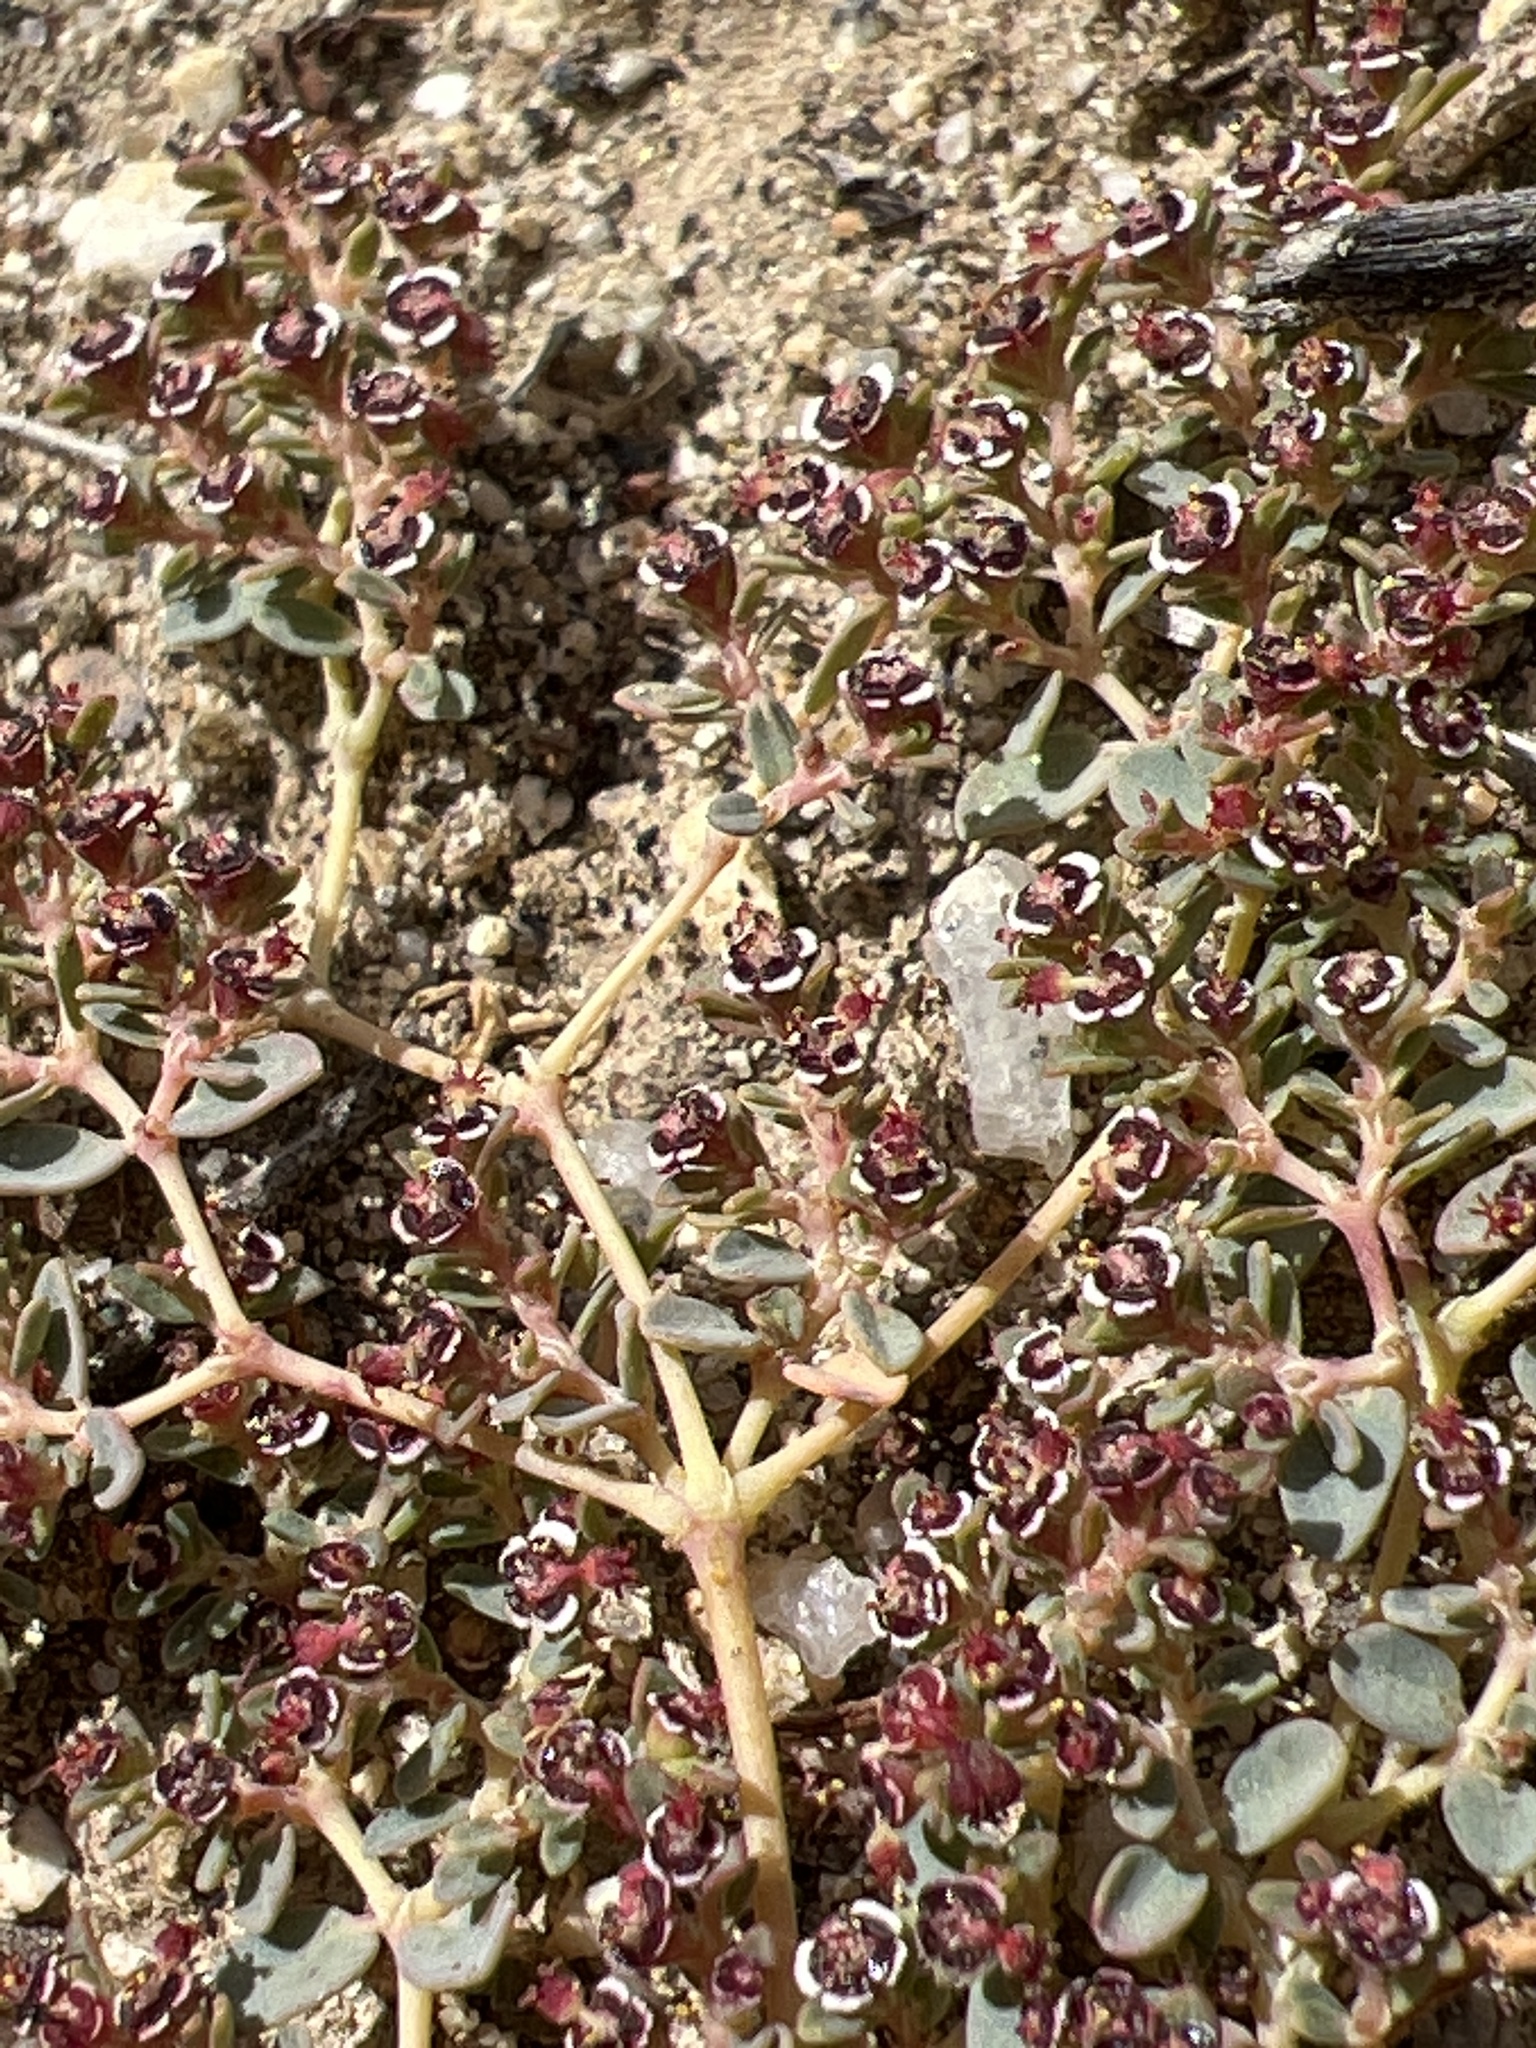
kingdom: Plantae
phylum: Tracheophyta
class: Magnoliopsida
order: Malpighiales
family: Euphorbiaceae
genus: Euphorbia
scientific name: Euphorbia polycarpa
